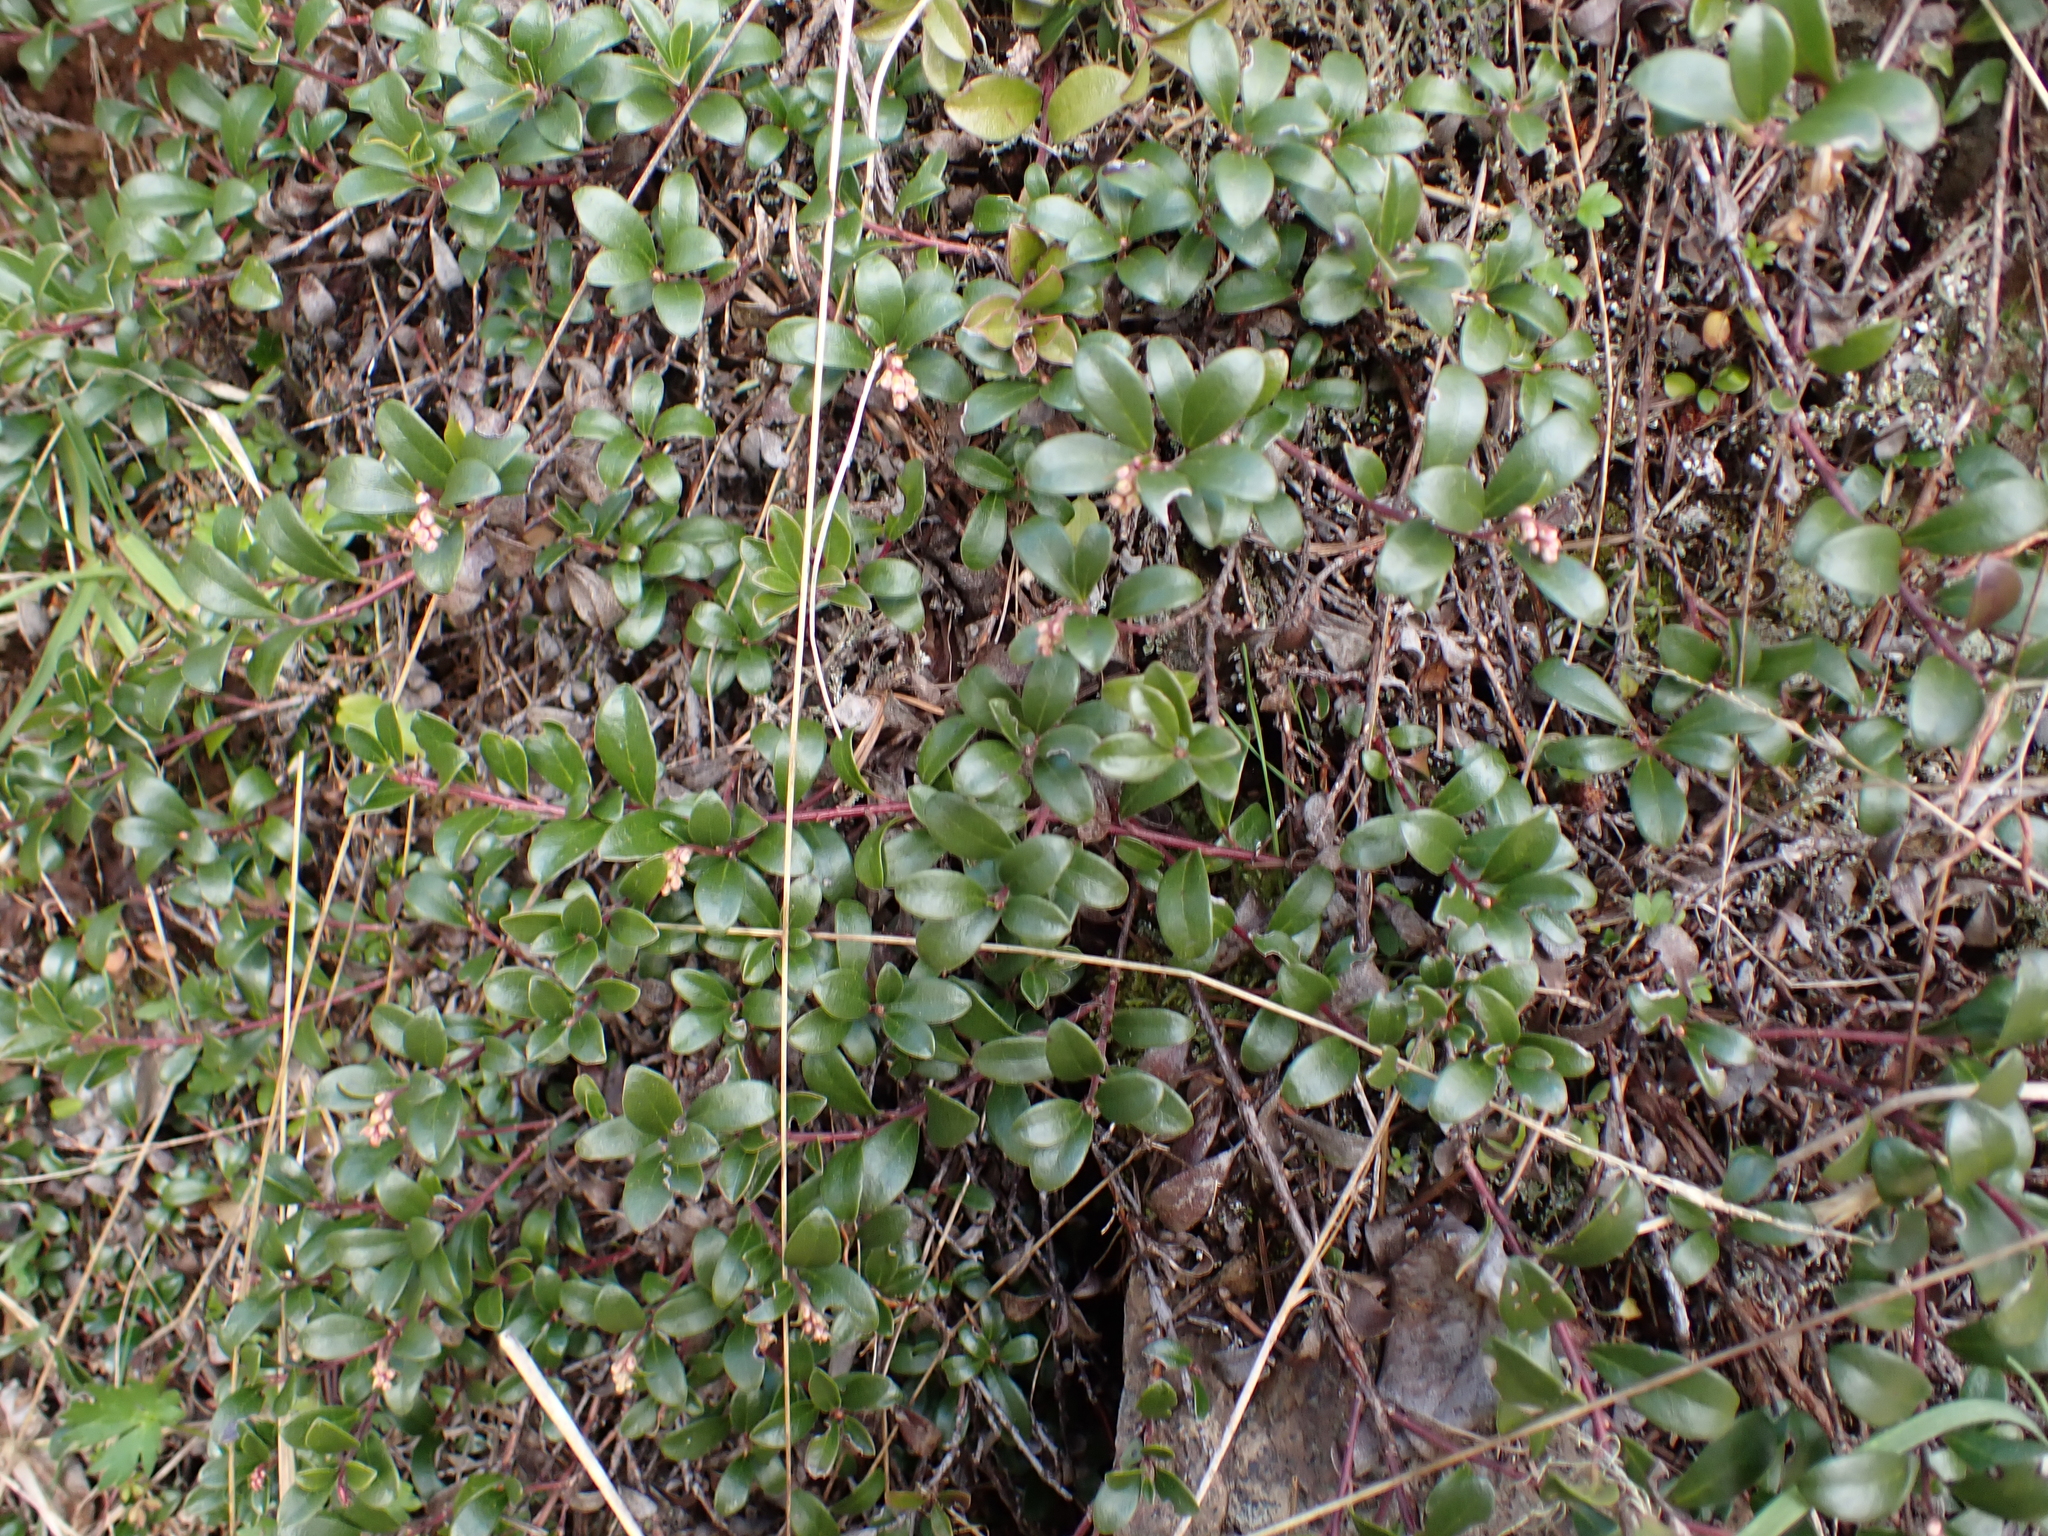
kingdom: Plantae
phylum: Tracheophyta
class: Magnoliopsida
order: Ericales
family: Ericaceae
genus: Arctostaphylos
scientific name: Arctostaphylos uva-ursi
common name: Bearberry
